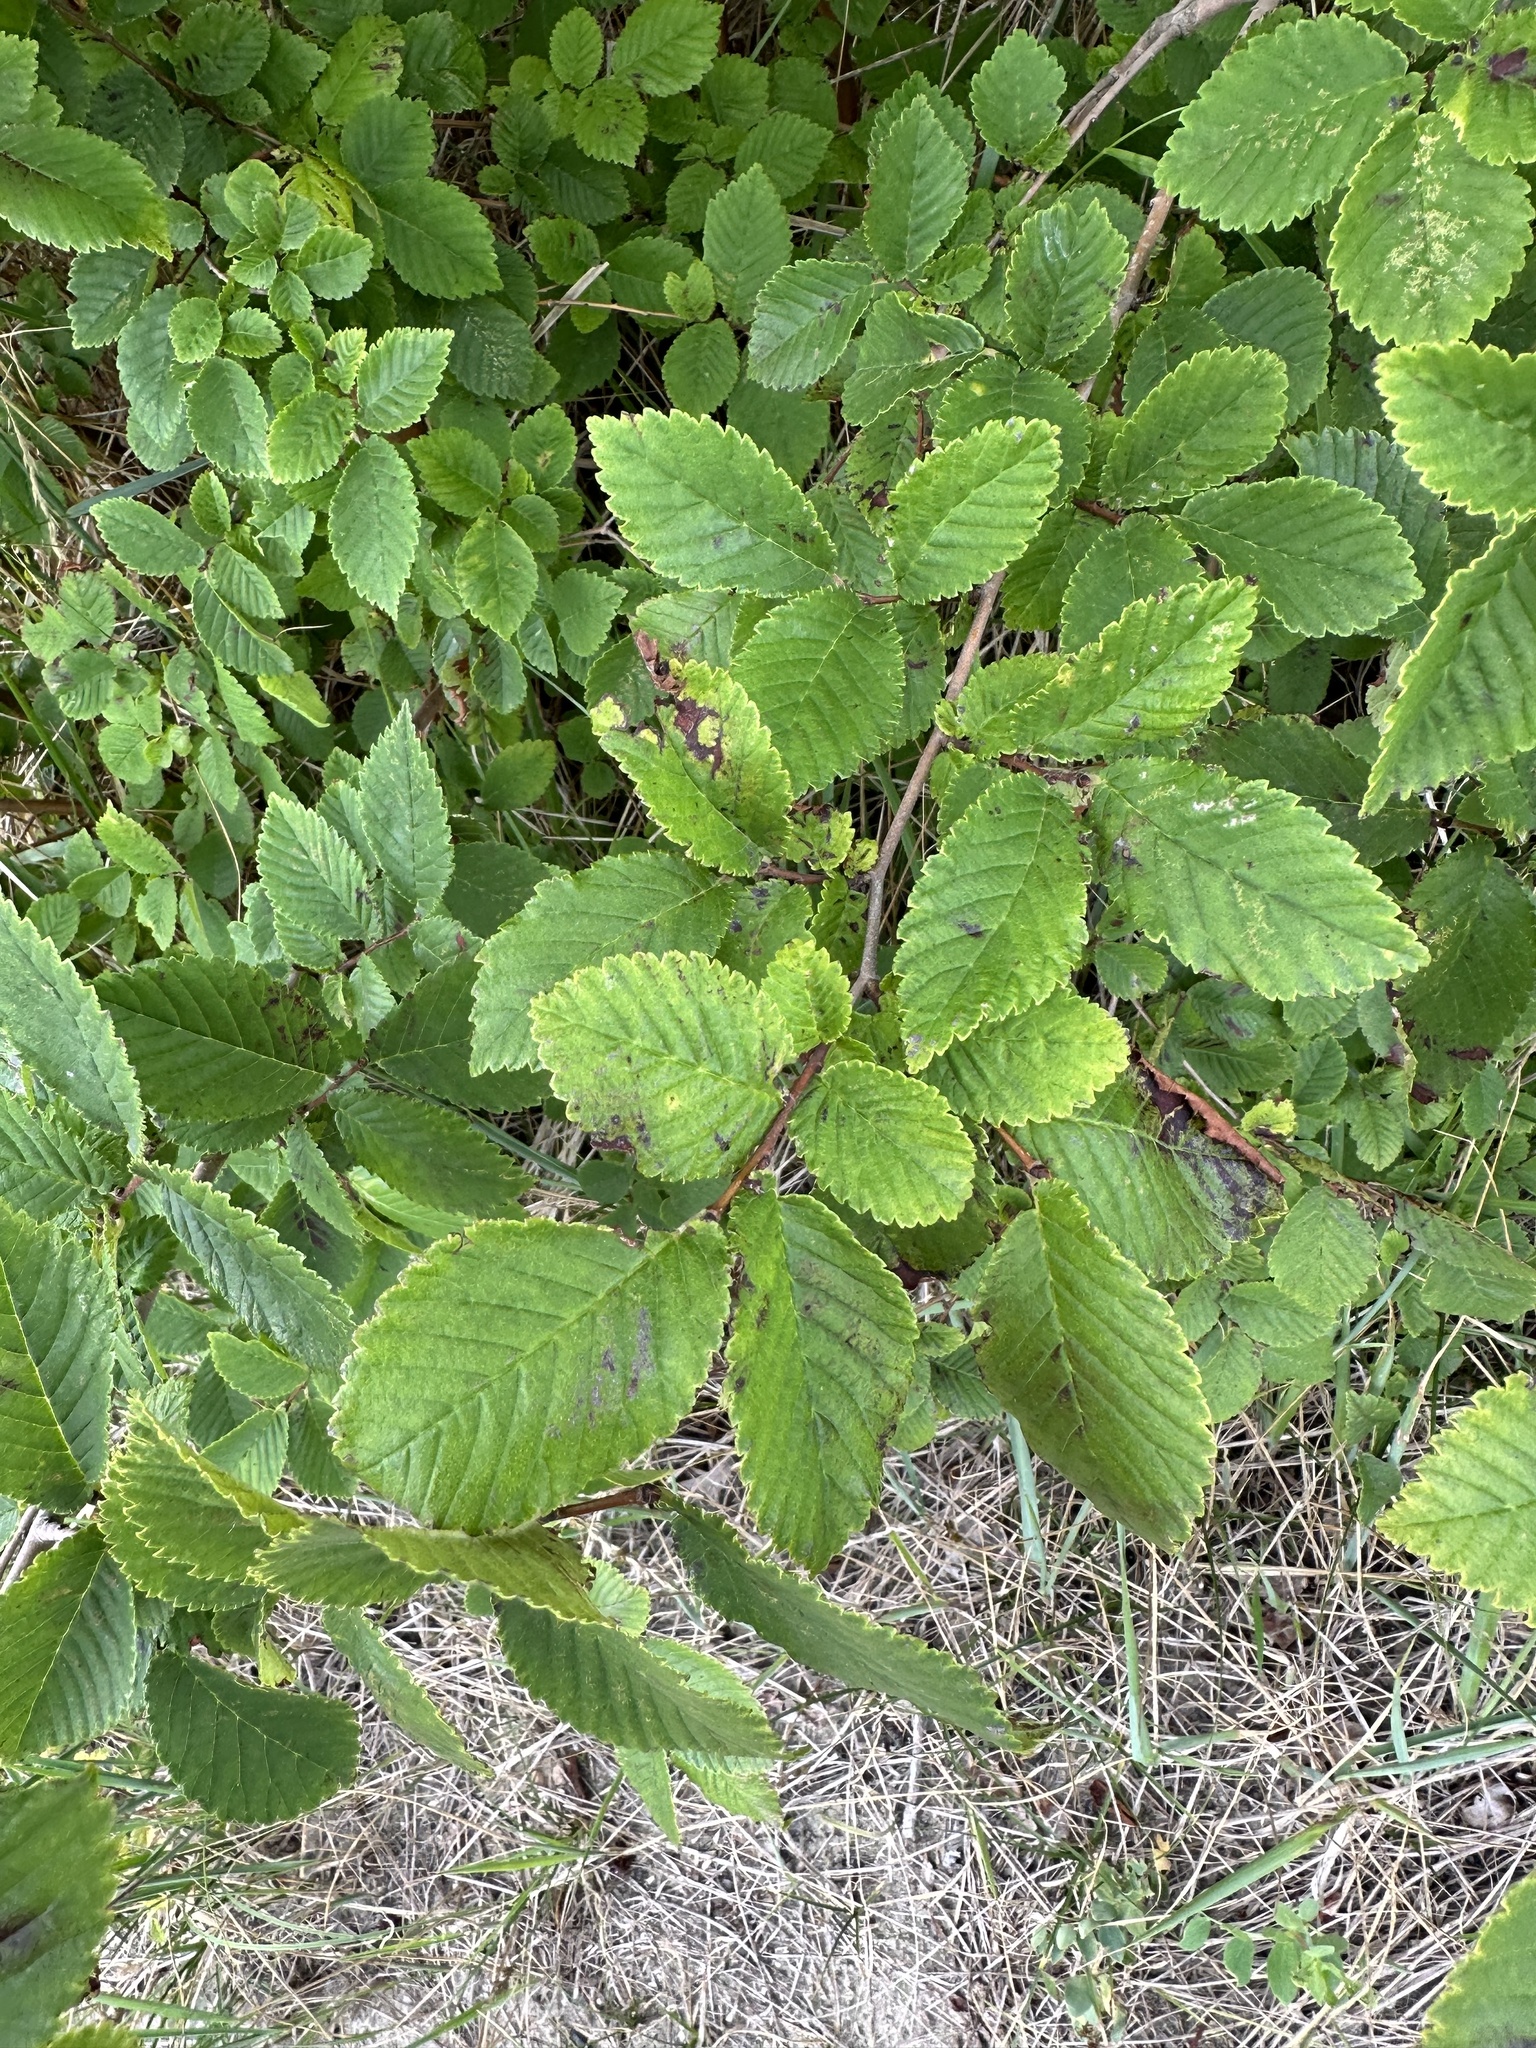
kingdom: Plantae
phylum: Tracheophyta
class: Magnoliopsida
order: Rosales
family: Ulmaceae
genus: Ulmus
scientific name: Ulmus minor
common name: Small-leaved elm
